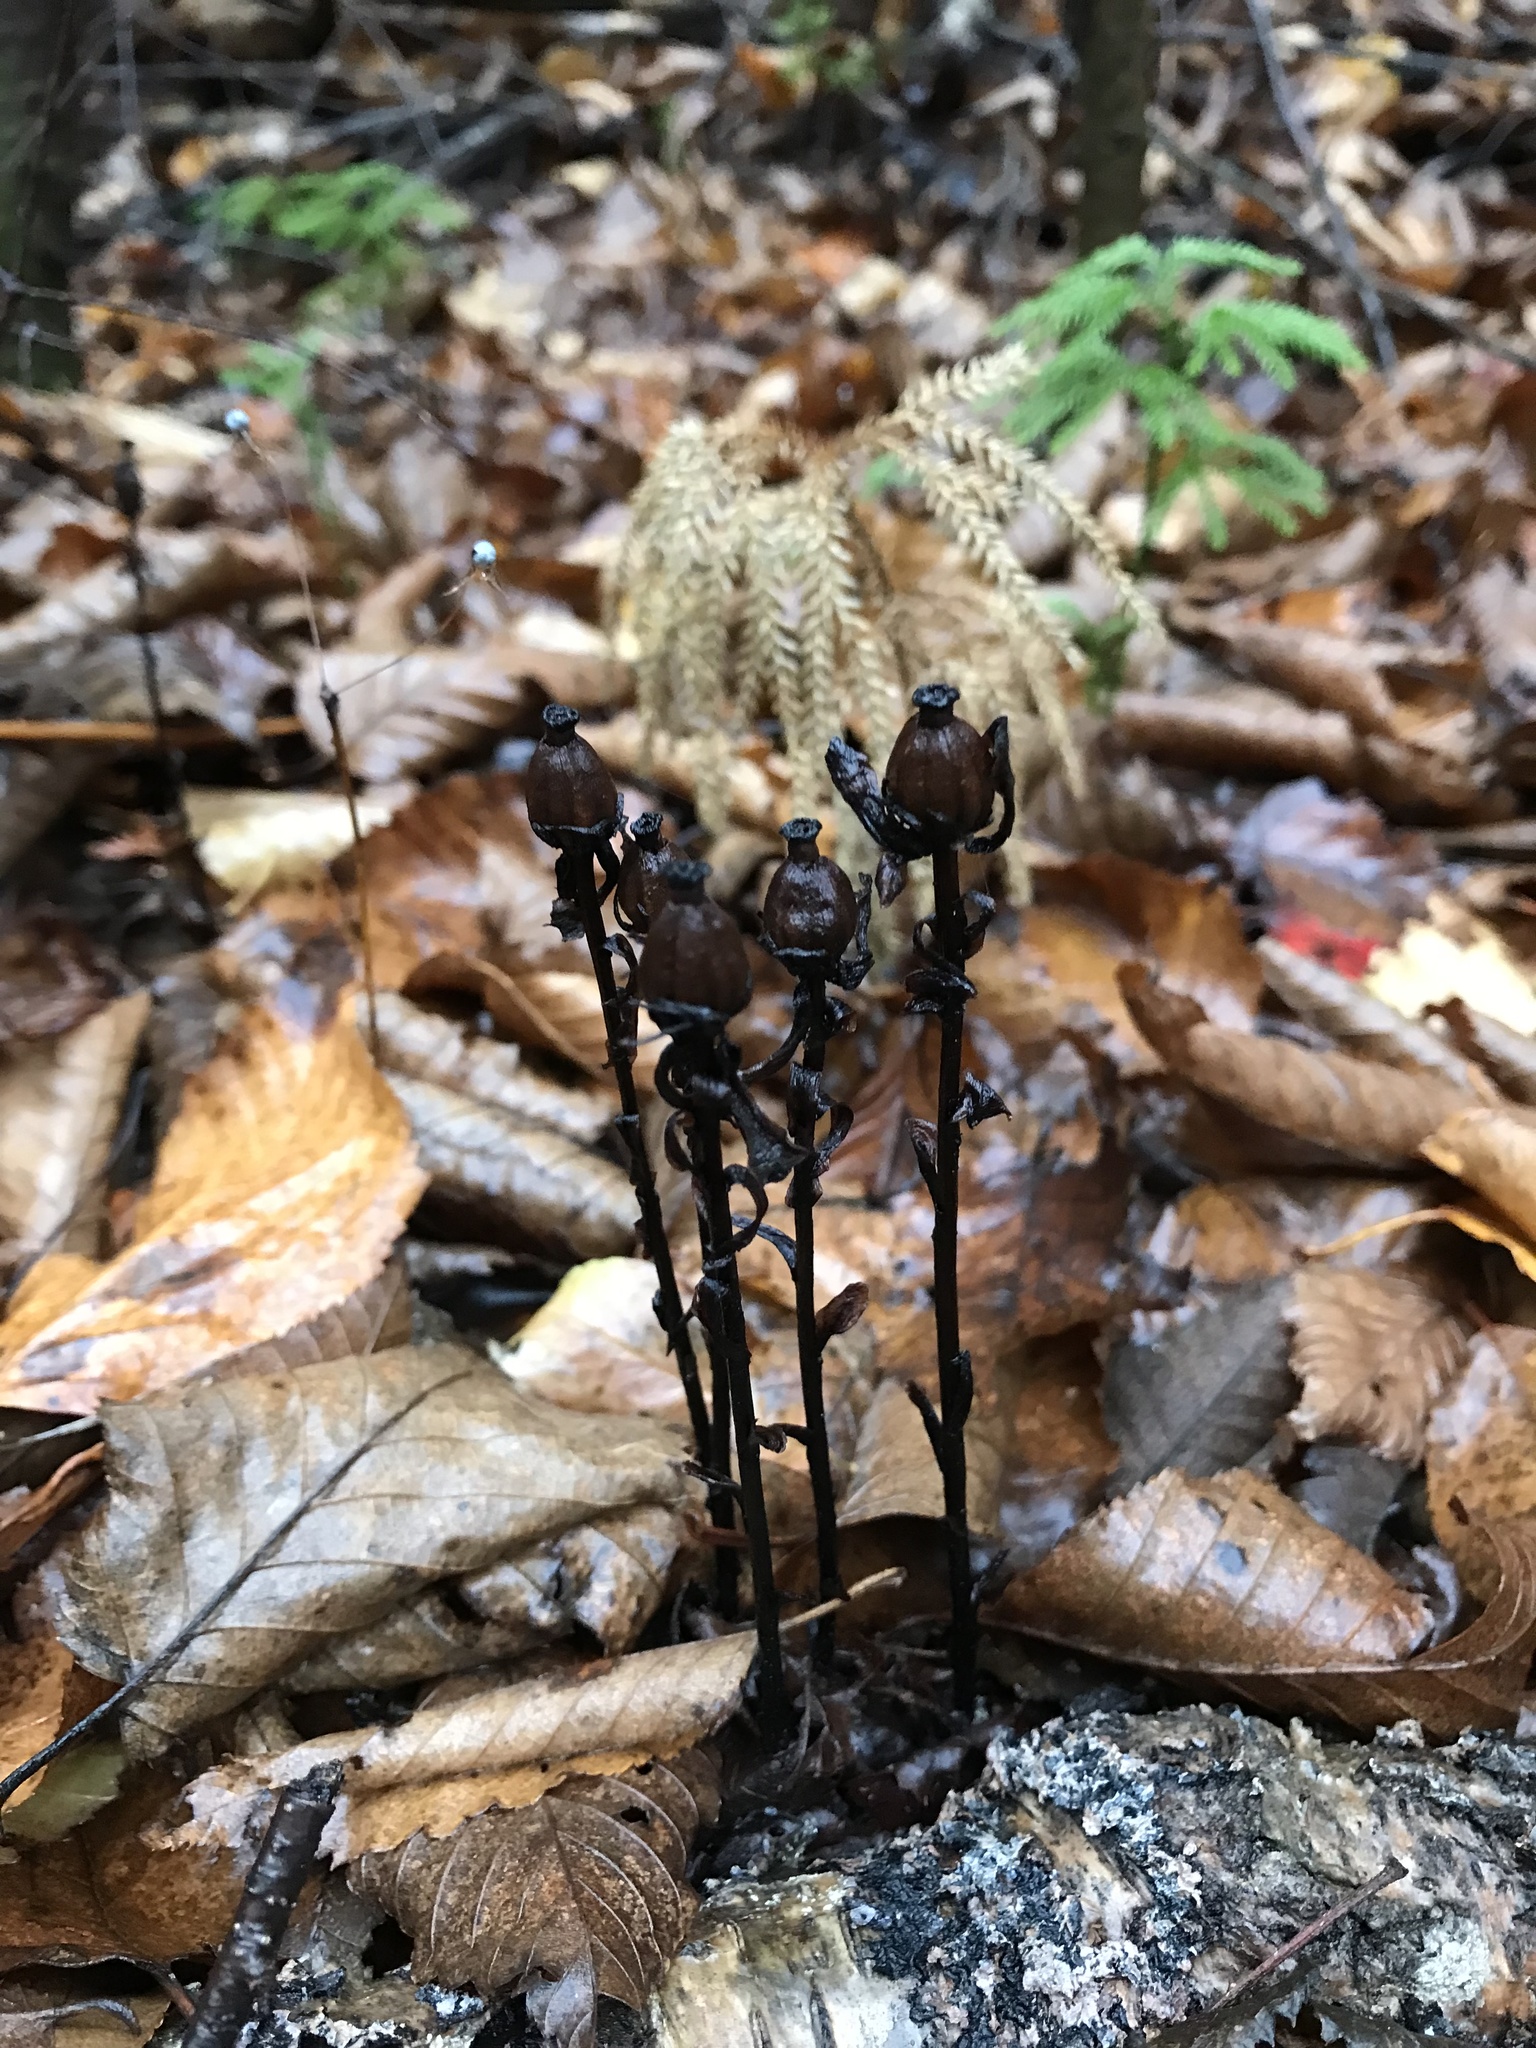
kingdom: Plantae
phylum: Tracheophyta
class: Magnoliopsida
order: Ericales
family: Ericaceae
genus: Monotropa
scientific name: Monotropa uniflora
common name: Convulsion root
